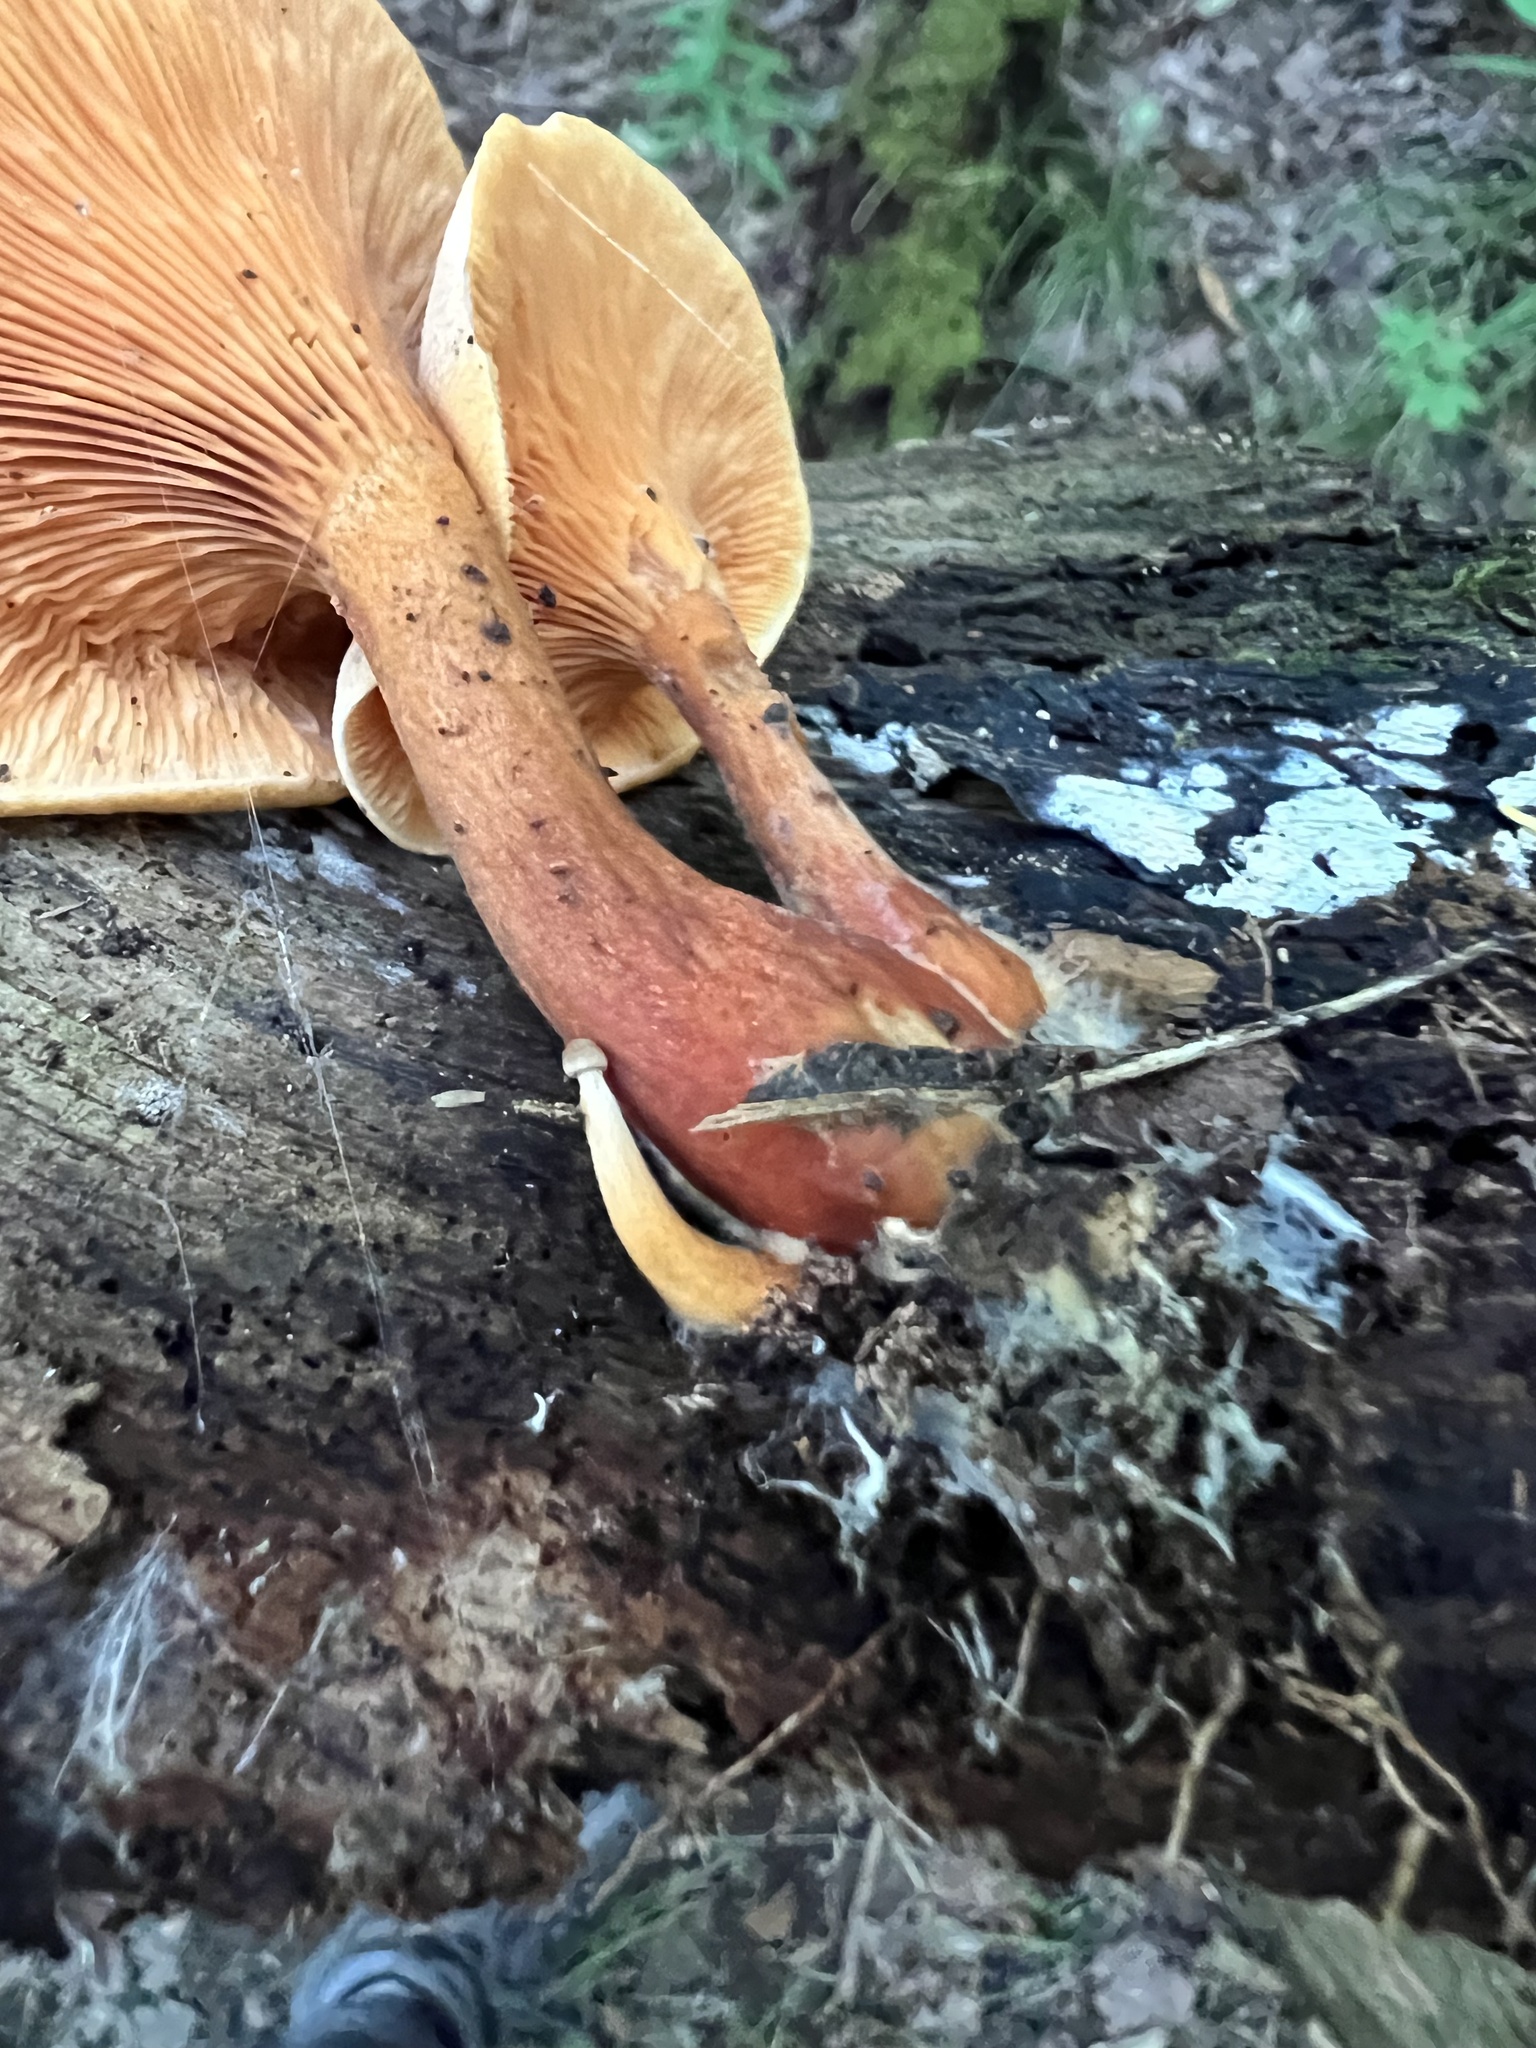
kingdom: Fungi
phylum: Basidiomycota
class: Agaricomycetes
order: Boletales
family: Hygrophoropsidaceae
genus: Hygrophoropsis
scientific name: Hygrophoropsis aurantiaca
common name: False chanterelle
